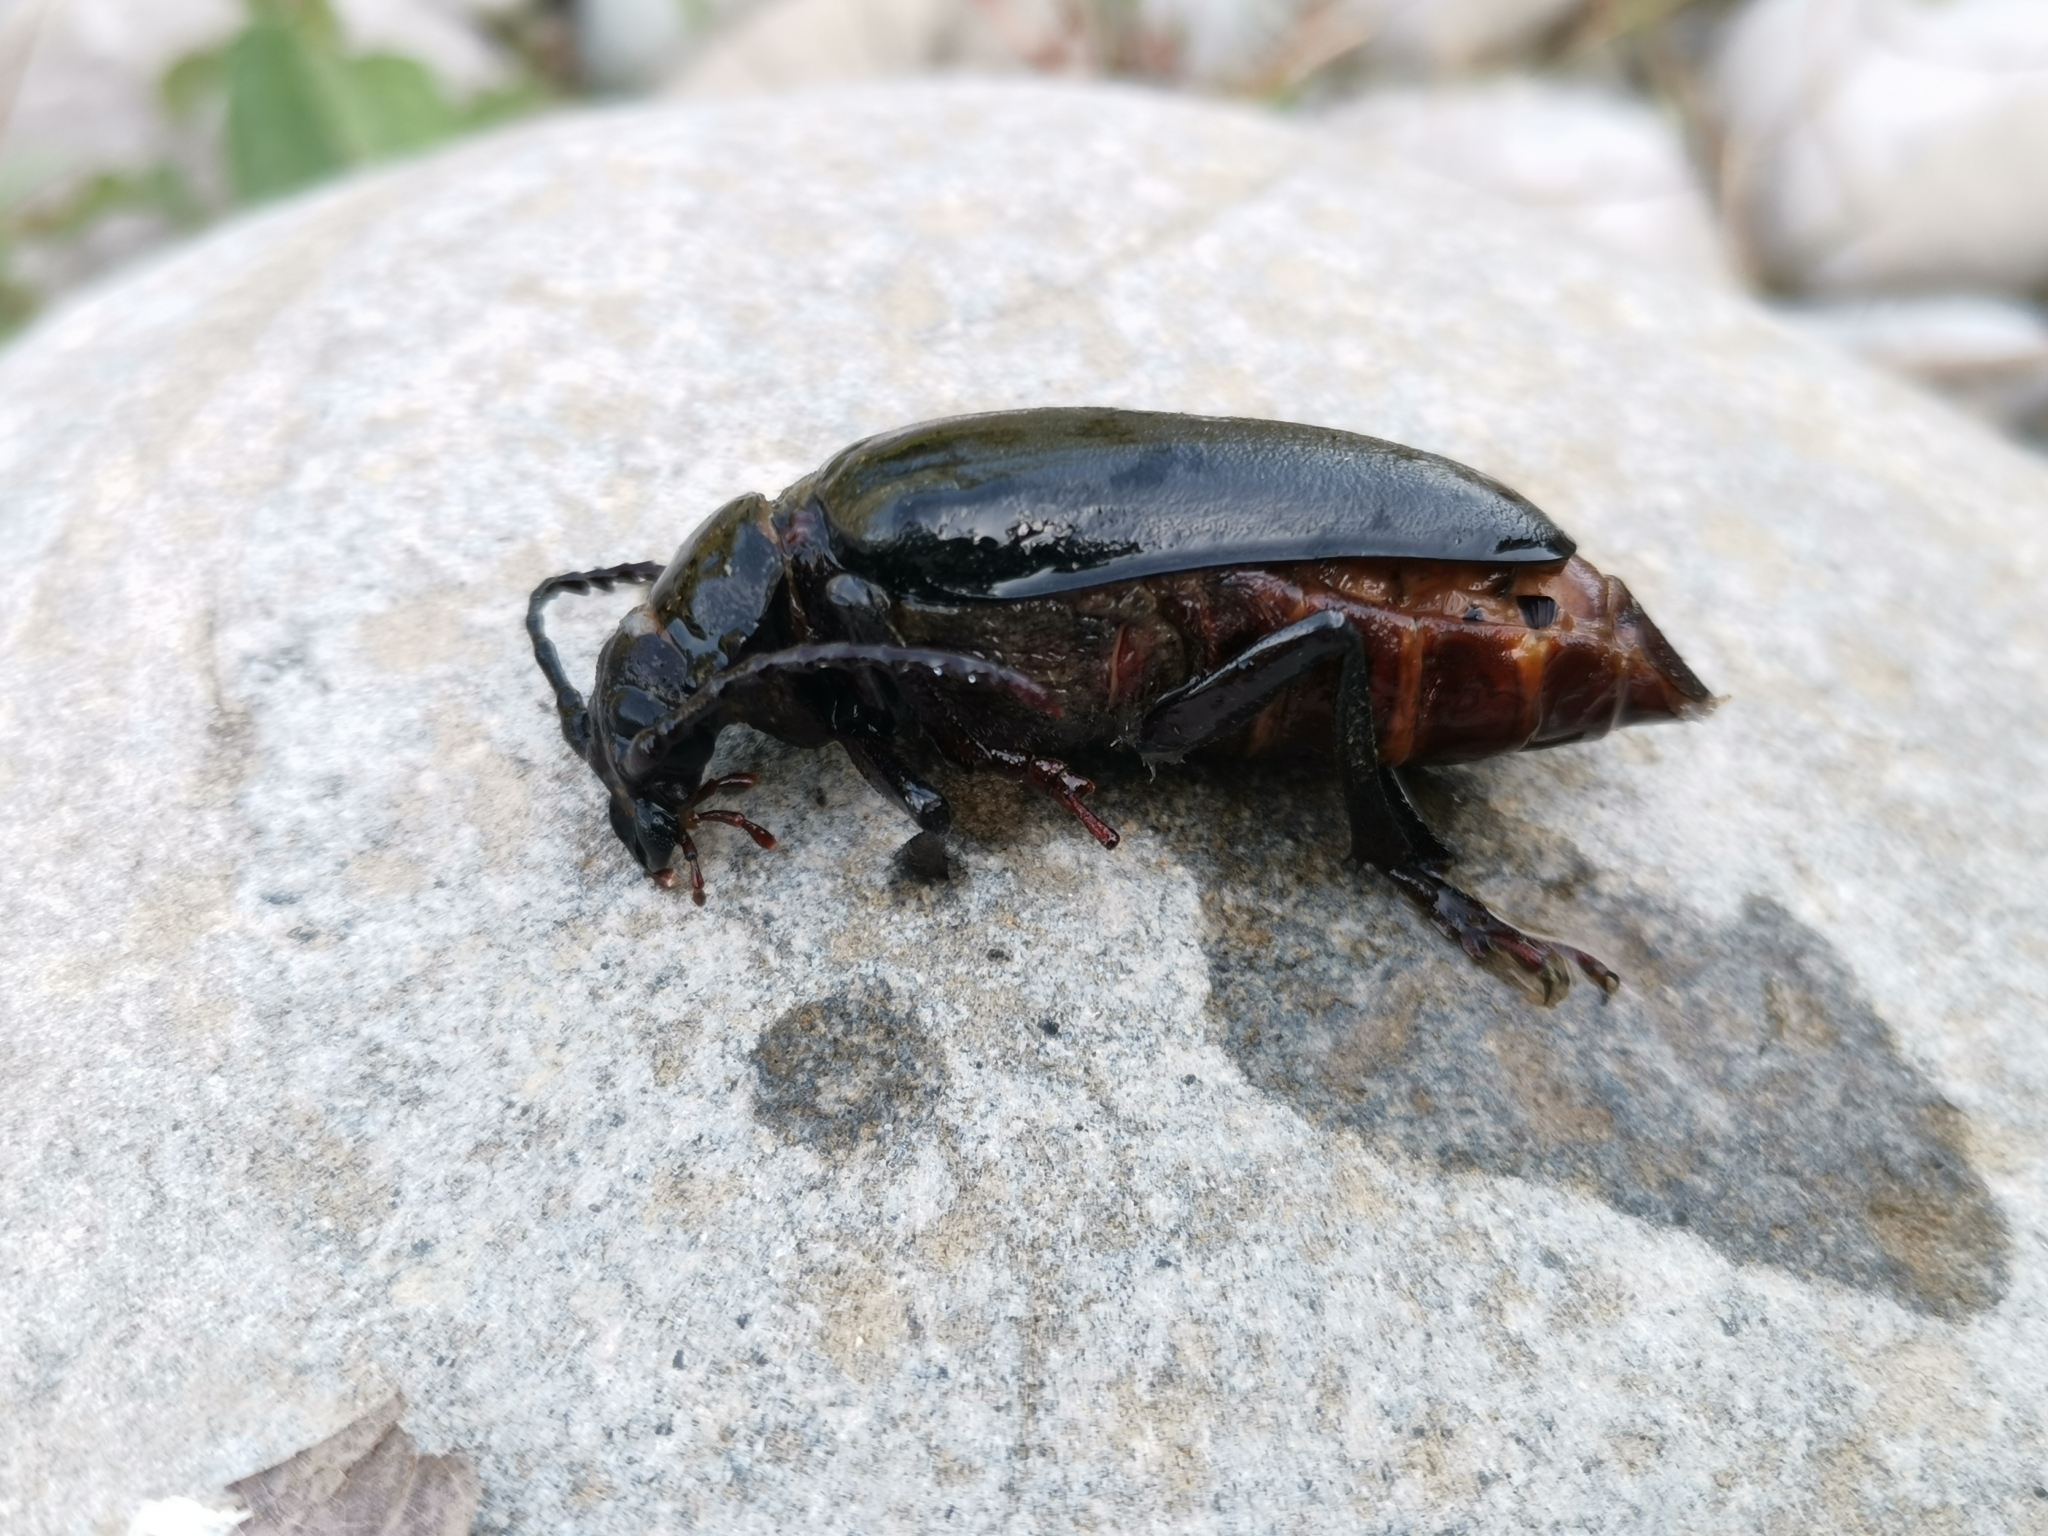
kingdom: Animalia
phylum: Arthropoda
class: Insecta
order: Coleoptera
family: Cerambycidae
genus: Prionus
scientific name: Prionus coriarius
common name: Tanner beetle
